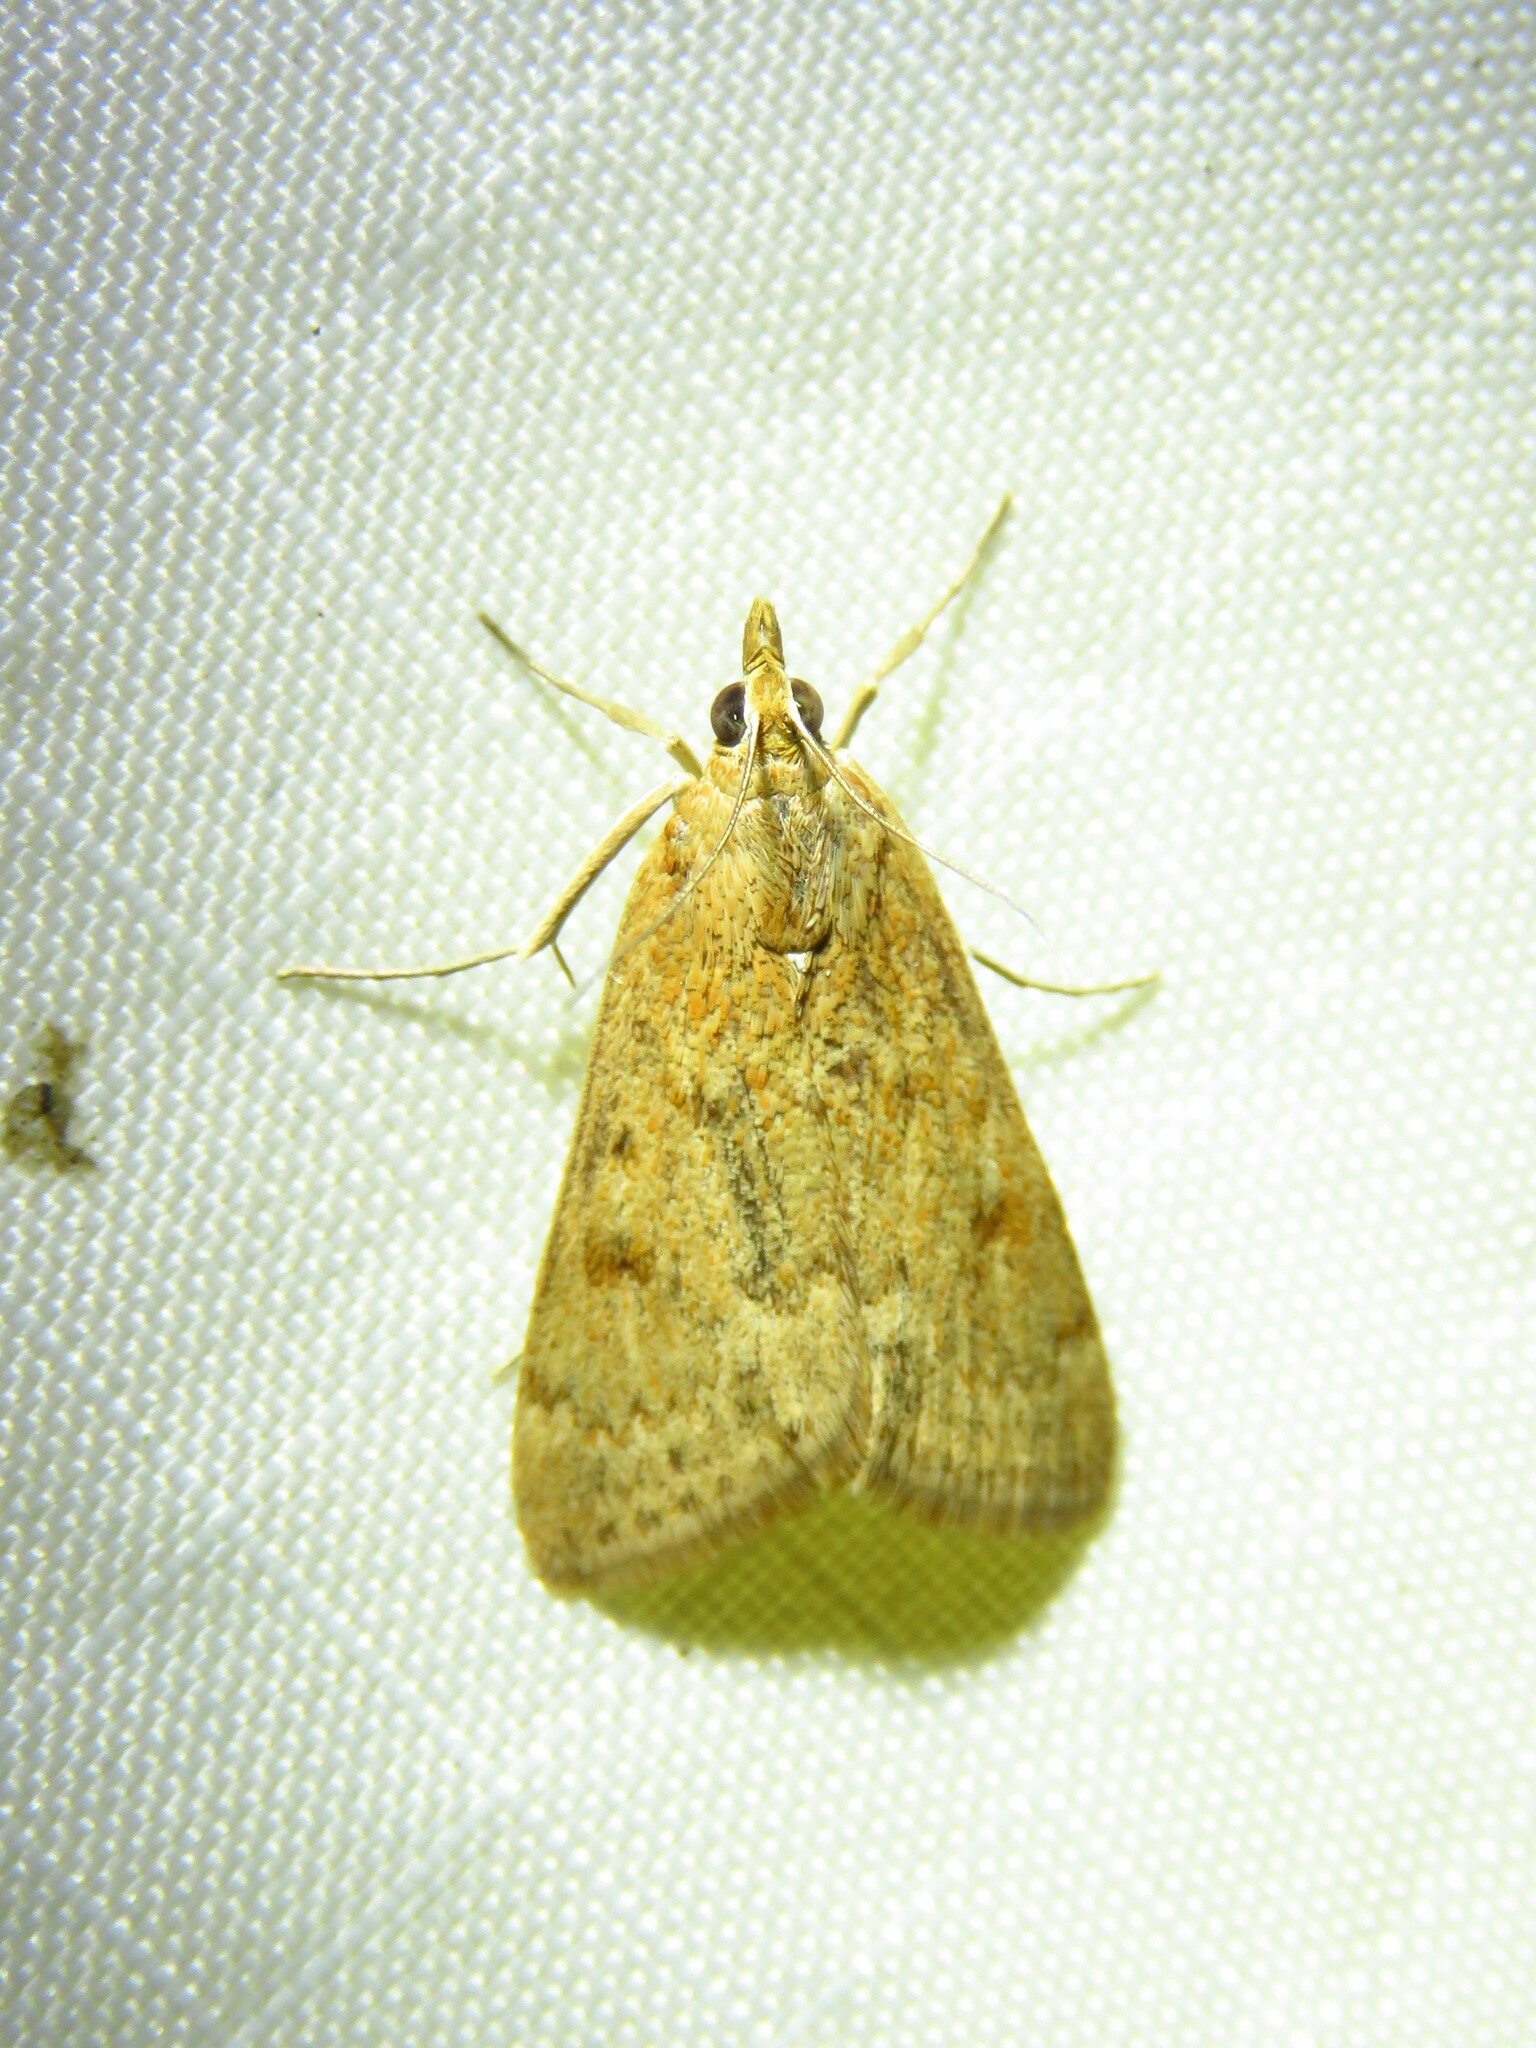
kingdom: Animalia
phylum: Arthropoda
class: Insecta
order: Lepidoptera
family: Crambidae
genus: Achyra
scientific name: Achyra rantalis
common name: Garden webworm
